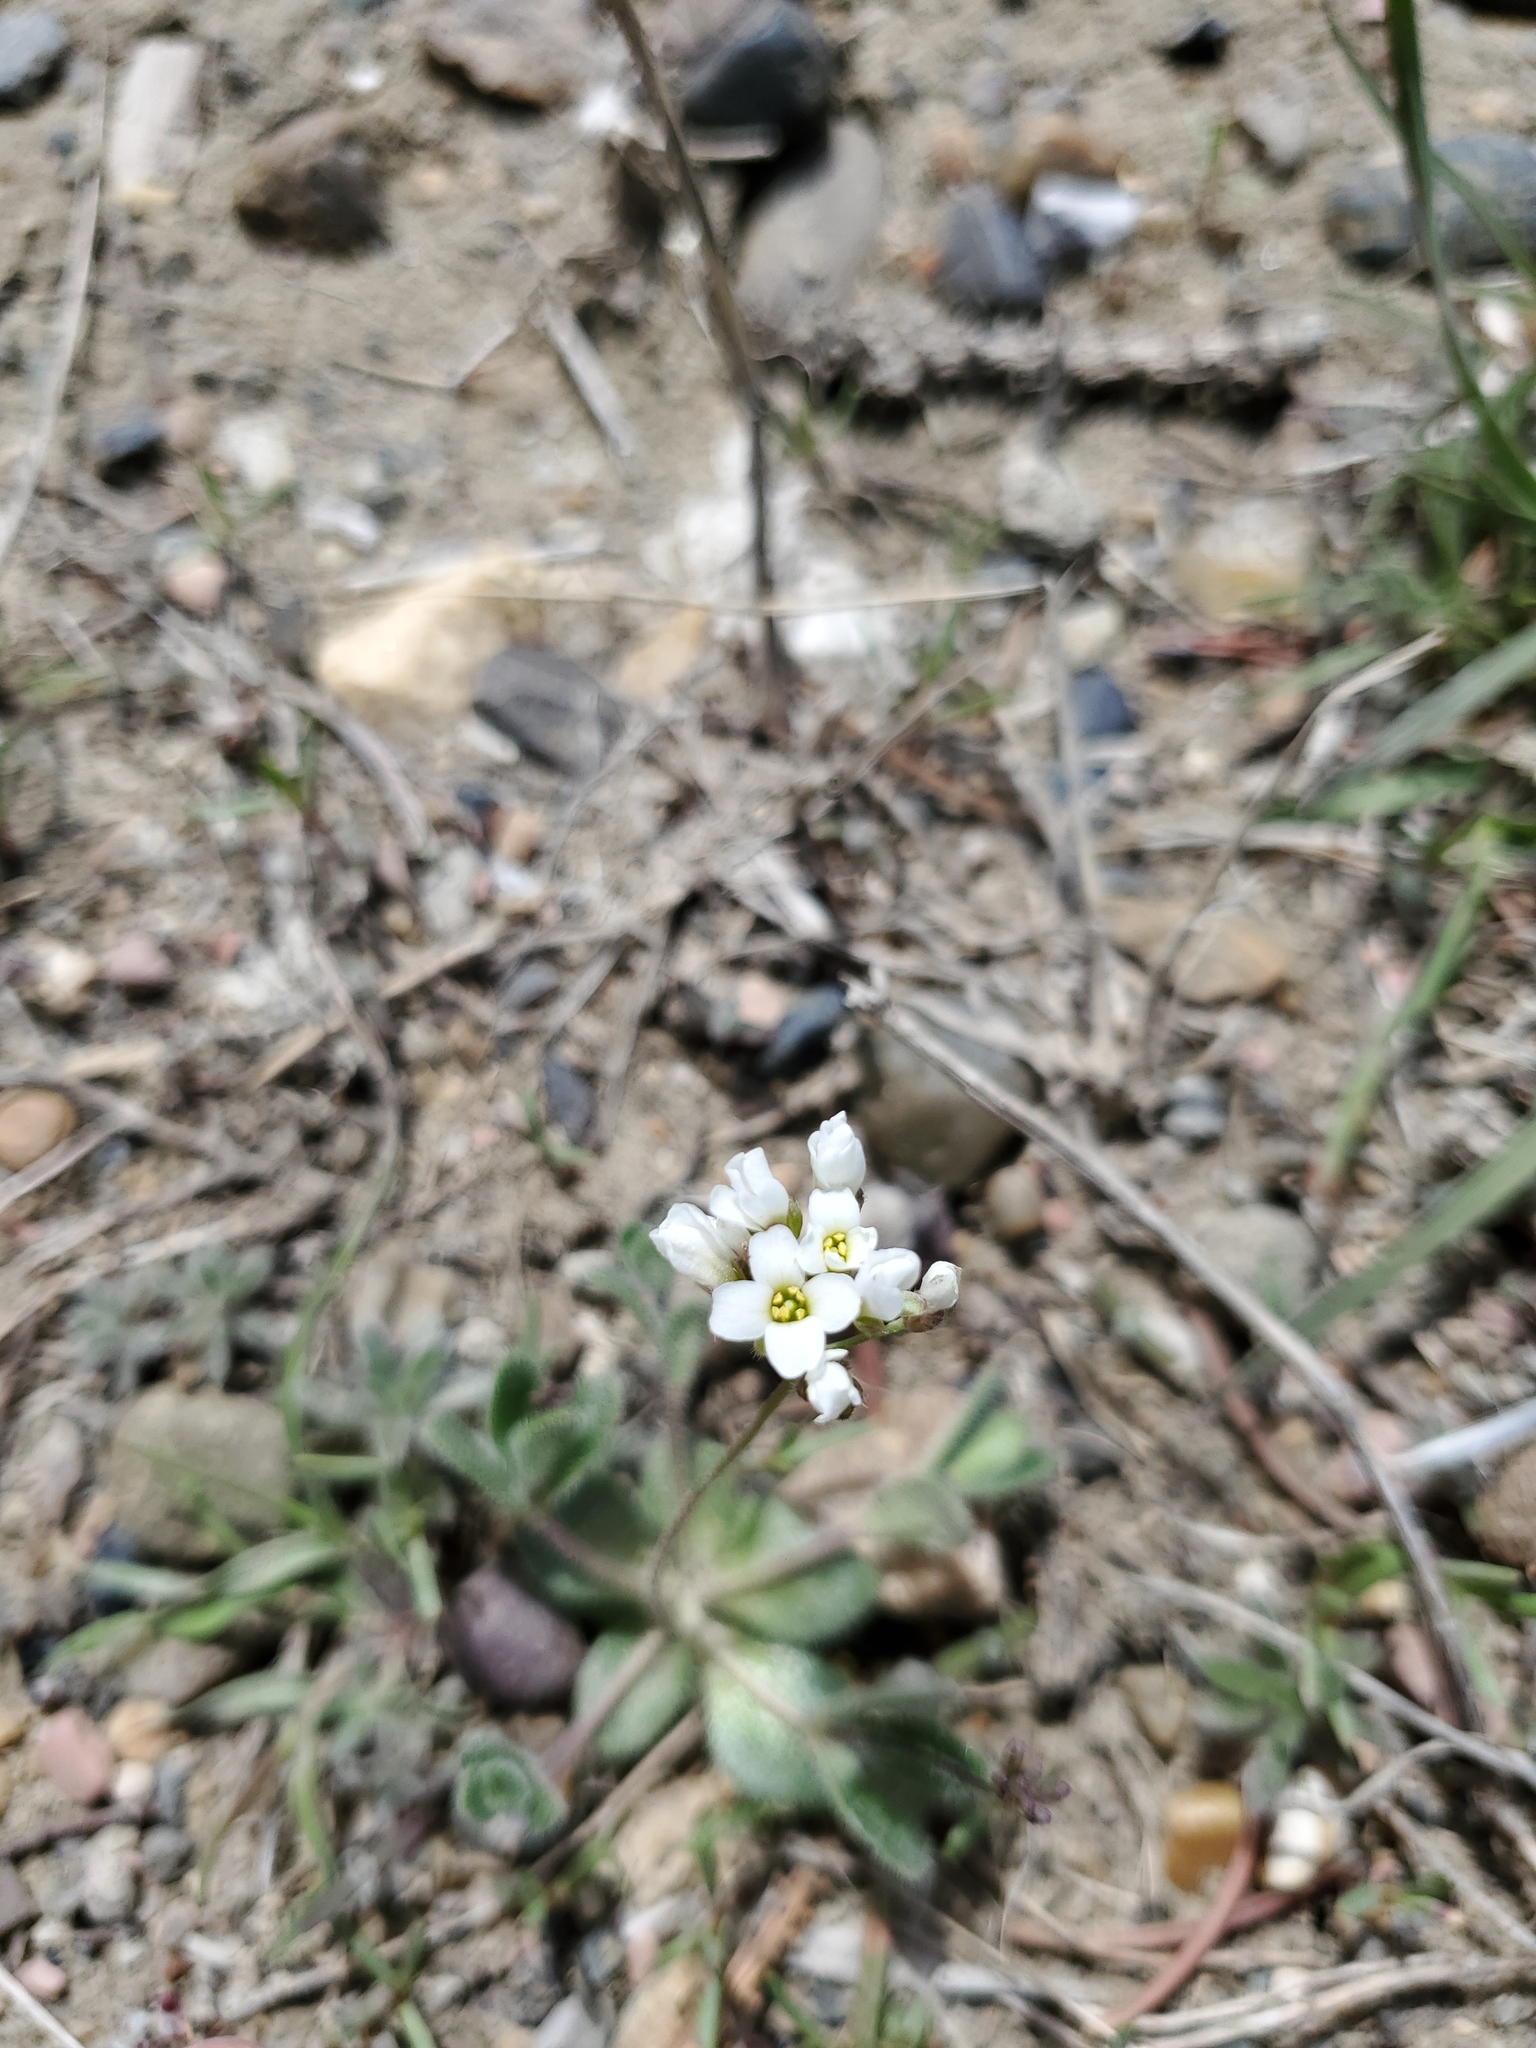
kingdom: Plantae
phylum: Tracheophyta
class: Magnoliopsida
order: Brassicales
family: Brassicaceae
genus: Tomostima
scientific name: Tomostima reptans
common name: Carolina draba
